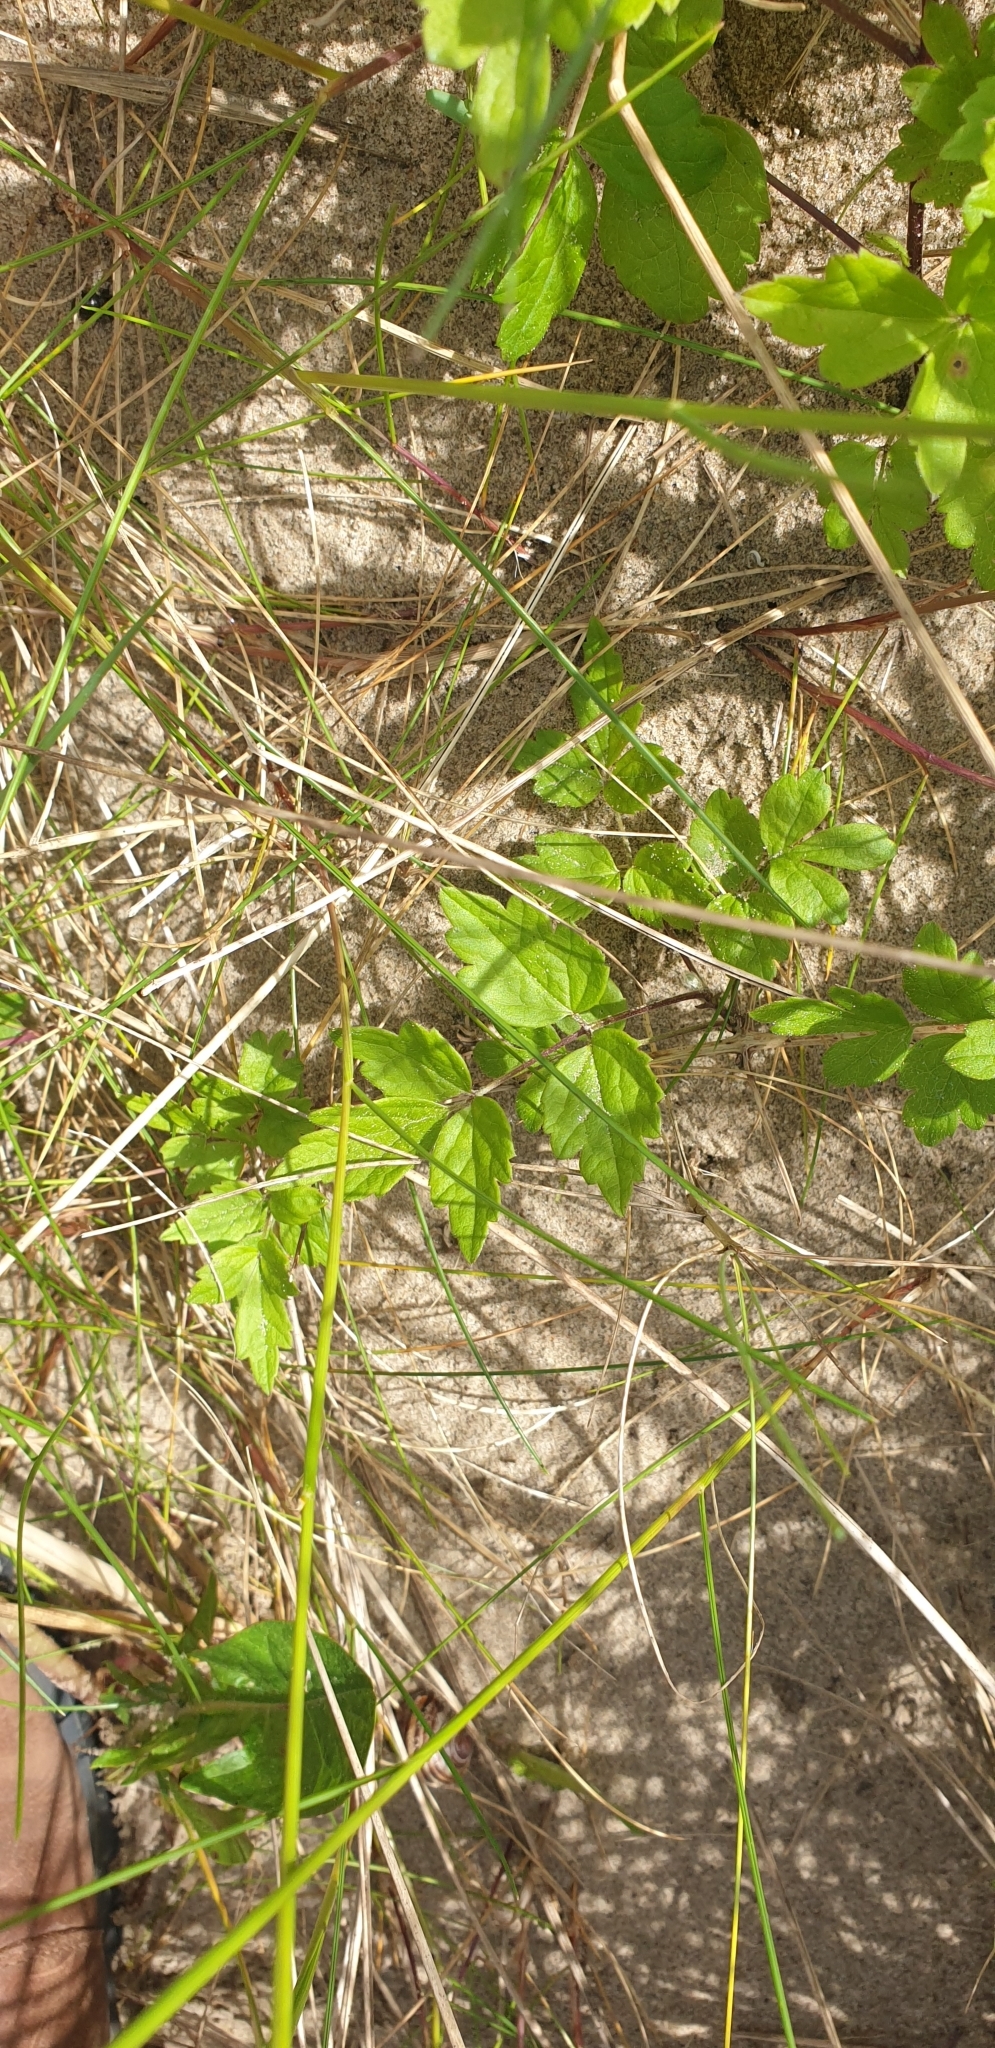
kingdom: Plantae
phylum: Tracheophyta
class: Magnoliopsida
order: Ranunculales
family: Ranunculaceae
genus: Clematis
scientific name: Clematis vitalba
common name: Evergreen clematis
